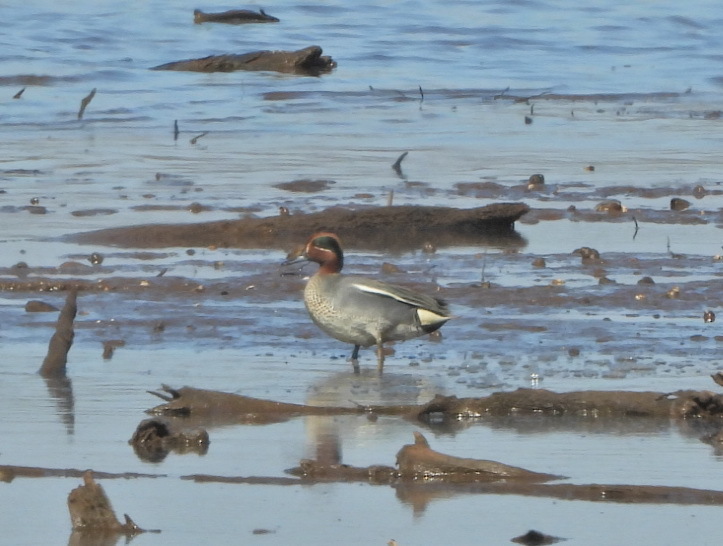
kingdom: Animalia
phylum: Chordata
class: Aves
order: Anseriformes
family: Anatidae
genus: Anas
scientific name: Anas crecca
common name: Eurasian teal
